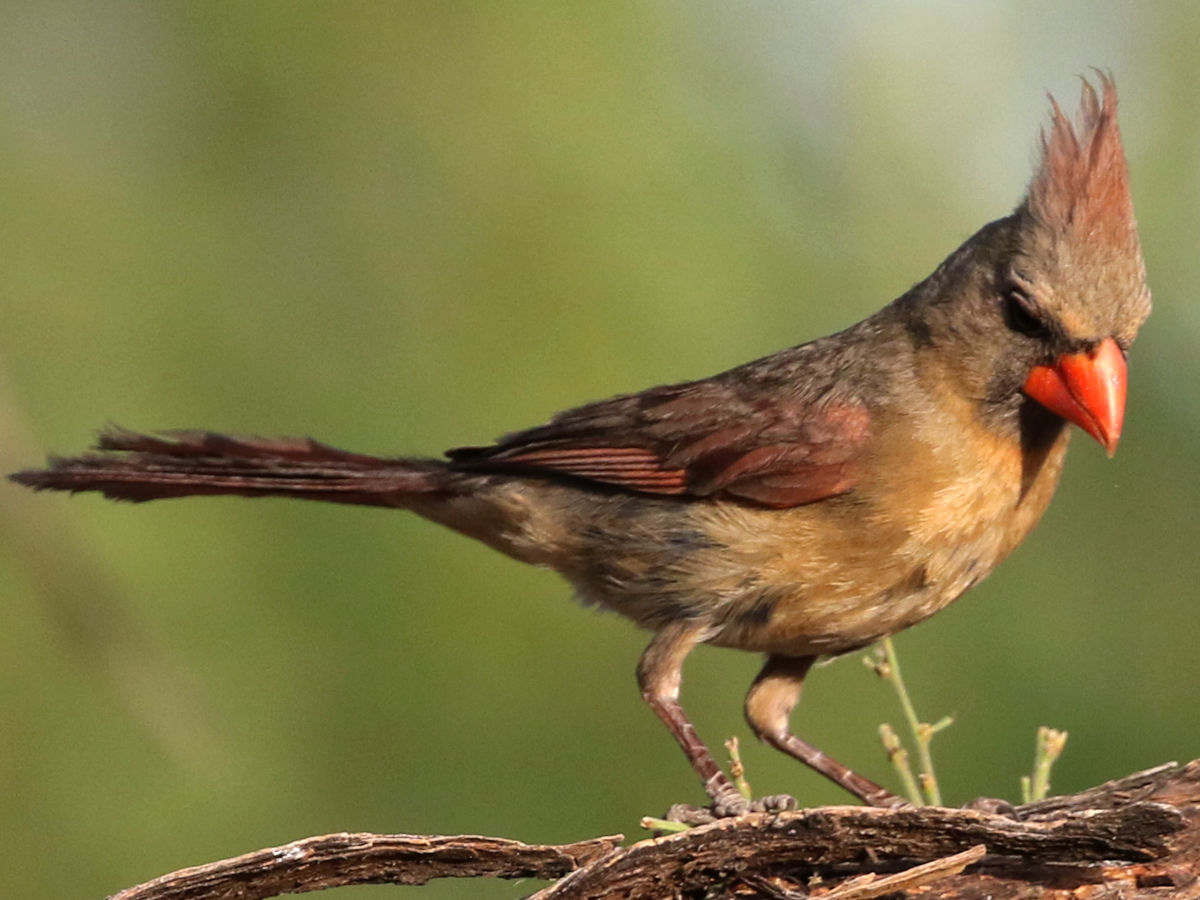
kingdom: Animalia
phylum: Chordata
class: Aves
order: Passeriformes
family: Cardinalidae
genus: Cardinalis
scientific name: Cardinalis cardinalis
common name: Northern cardinal
